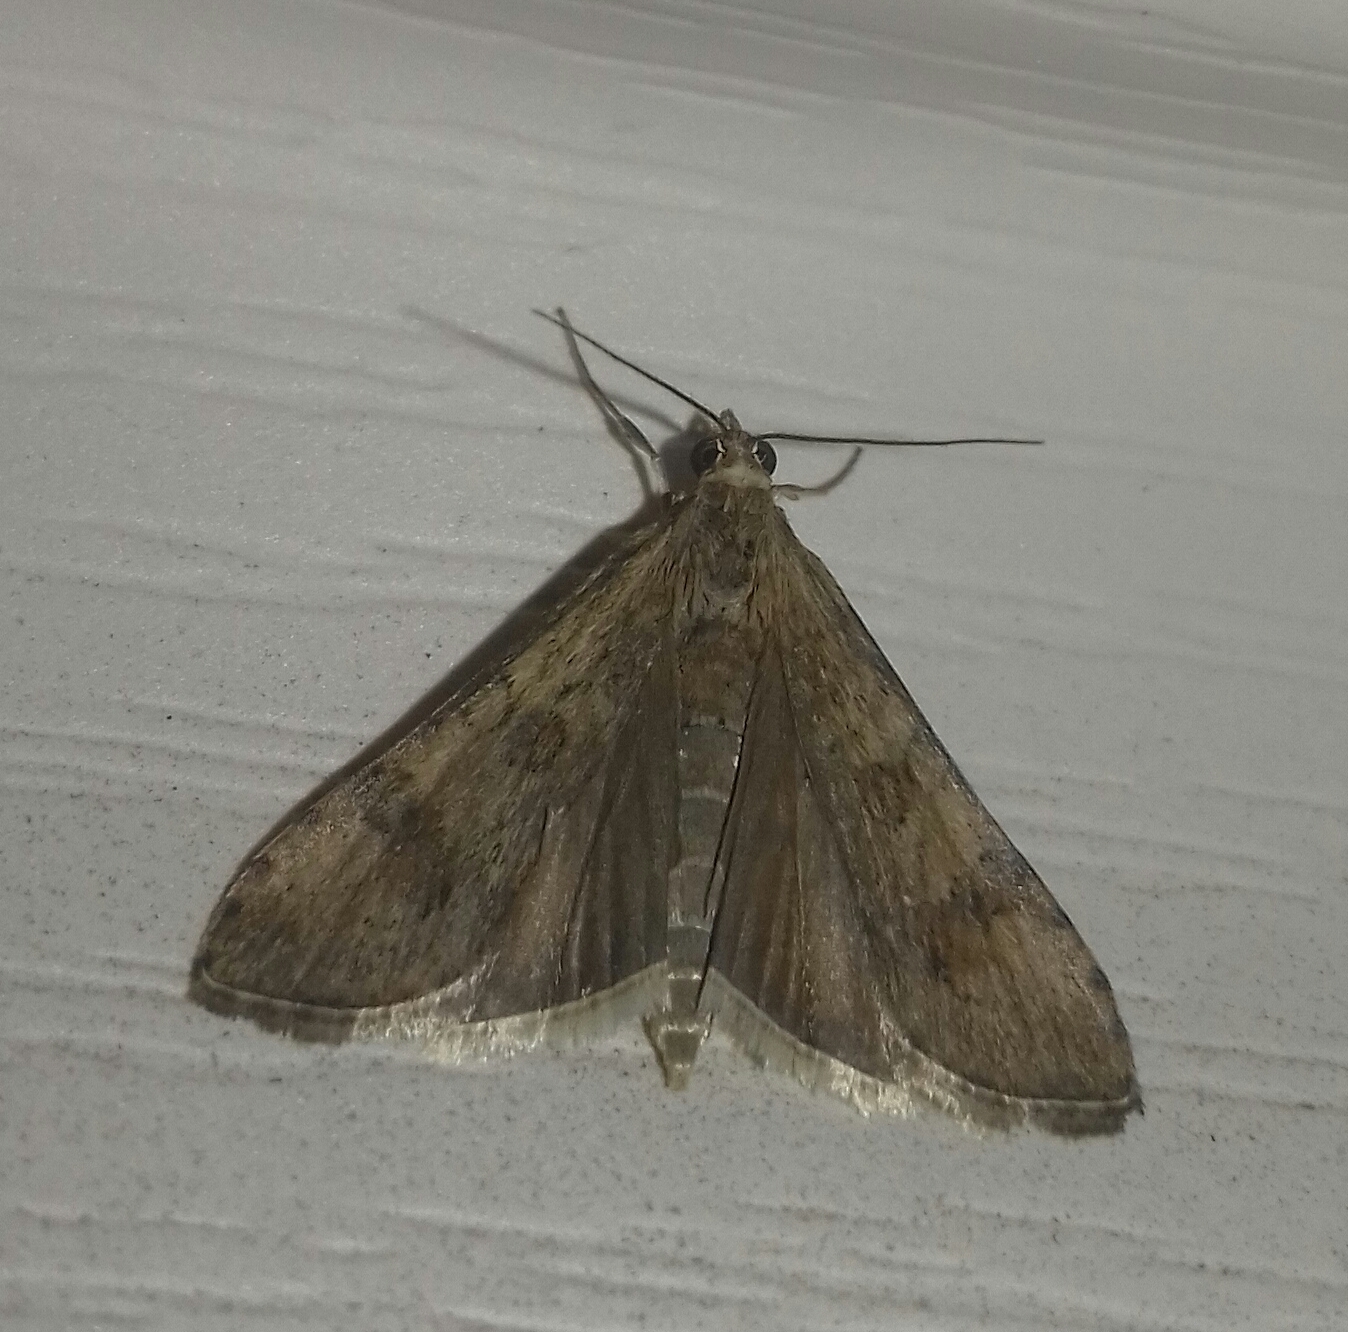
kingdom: Animalia
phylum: Arthropoda
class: Insecta
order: Lepidoptera
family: Crambidae
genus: Nomophila
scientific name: Nomophila noctuella
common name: Rush veneer
